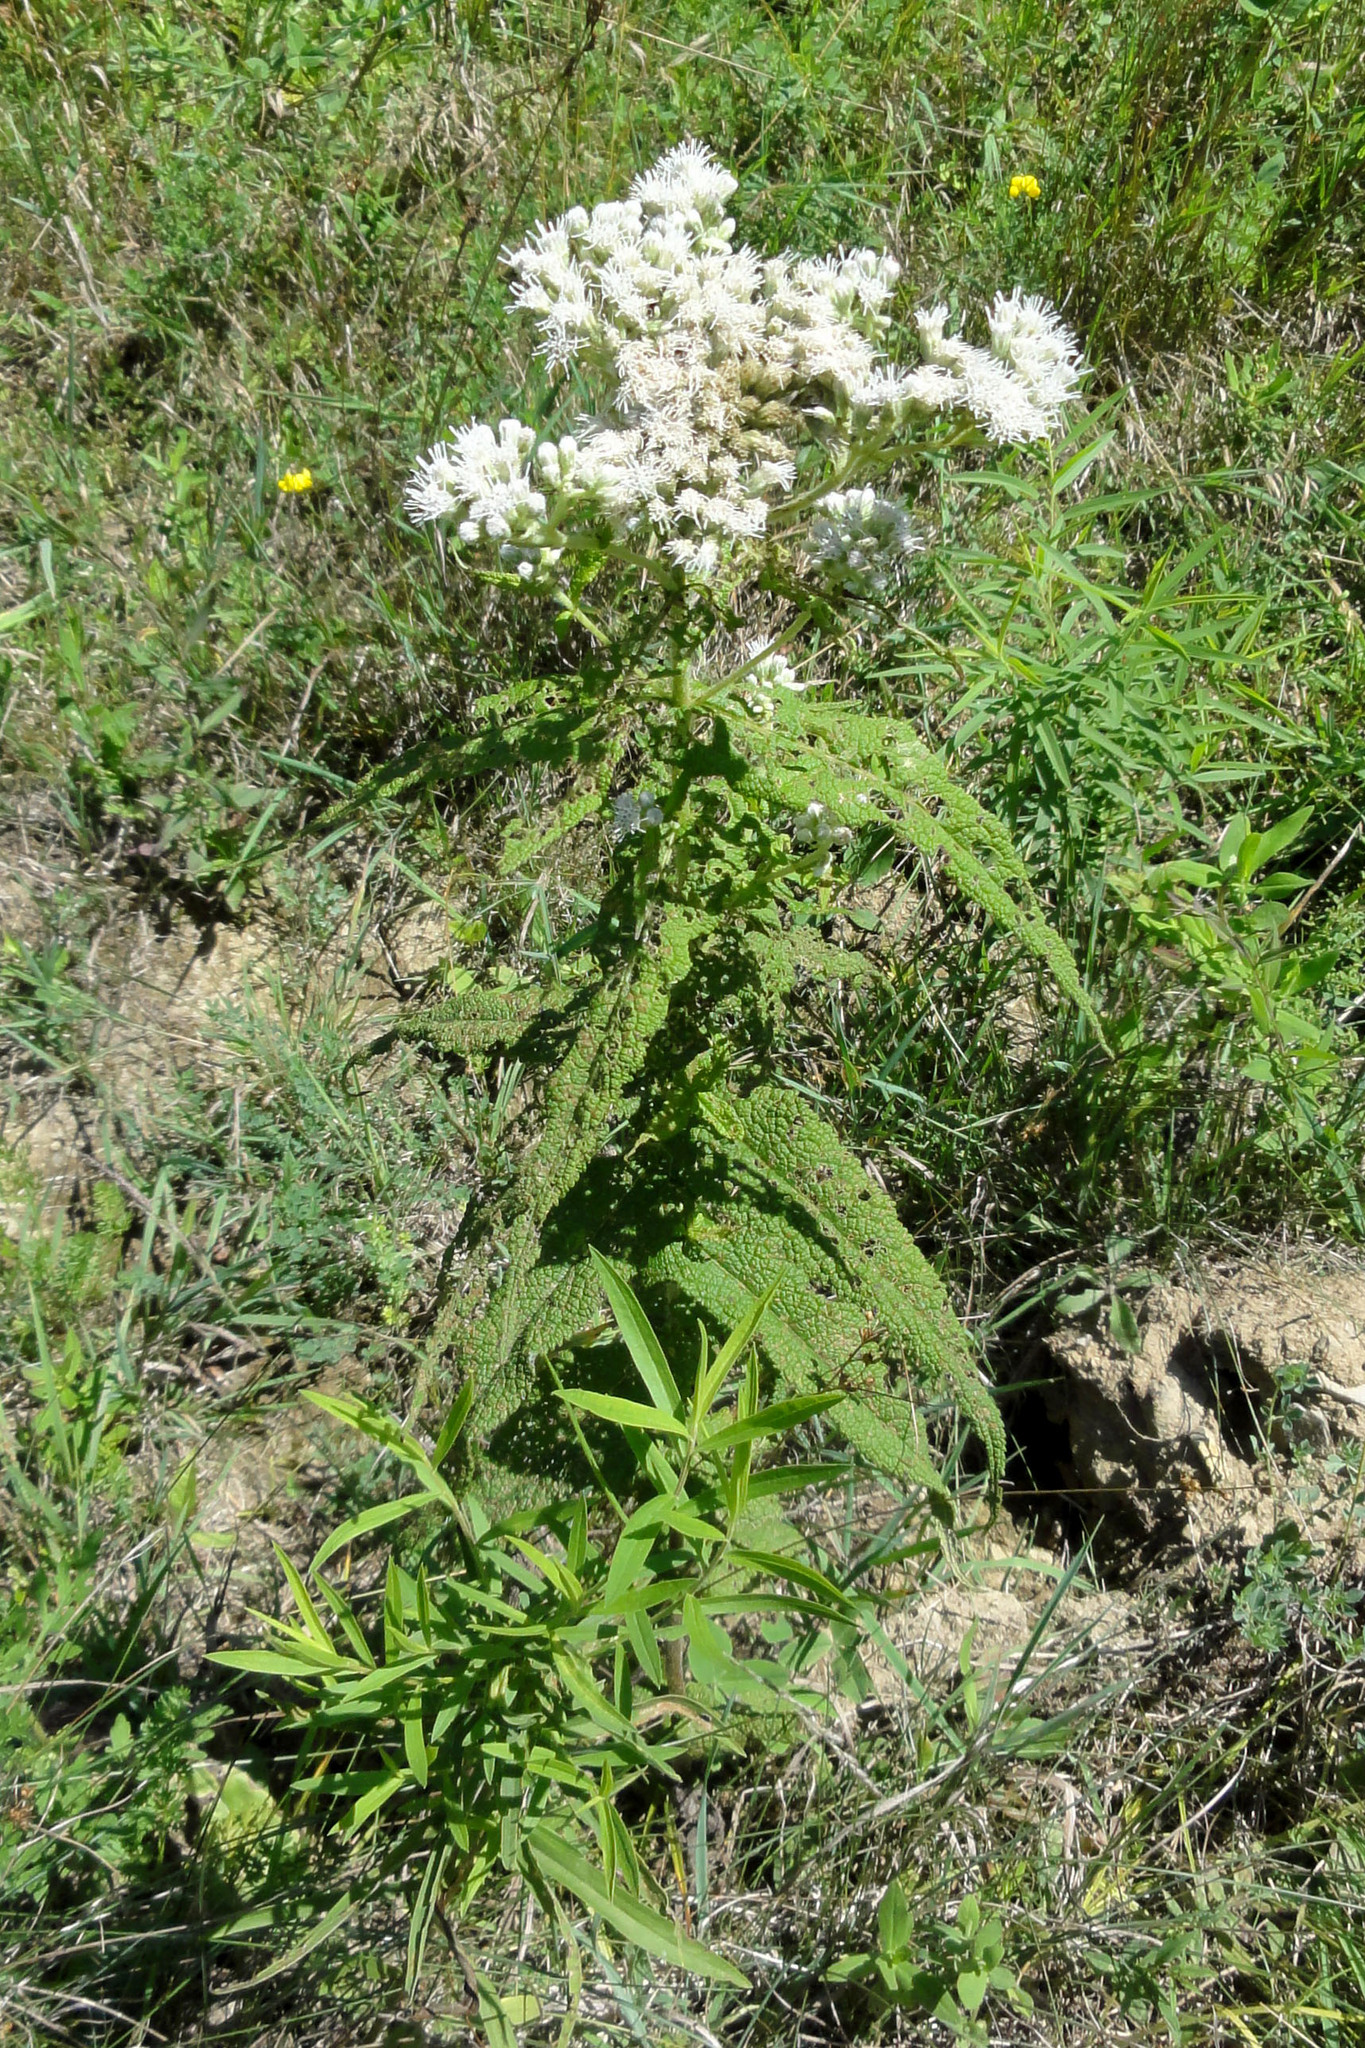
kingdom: Plantae
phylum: Tracheophyta
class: Magnoliopsida
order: Asterales
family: Asteraceae
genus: Eupatorium
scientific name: Eupatorium perfoliatum
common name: Boneset
